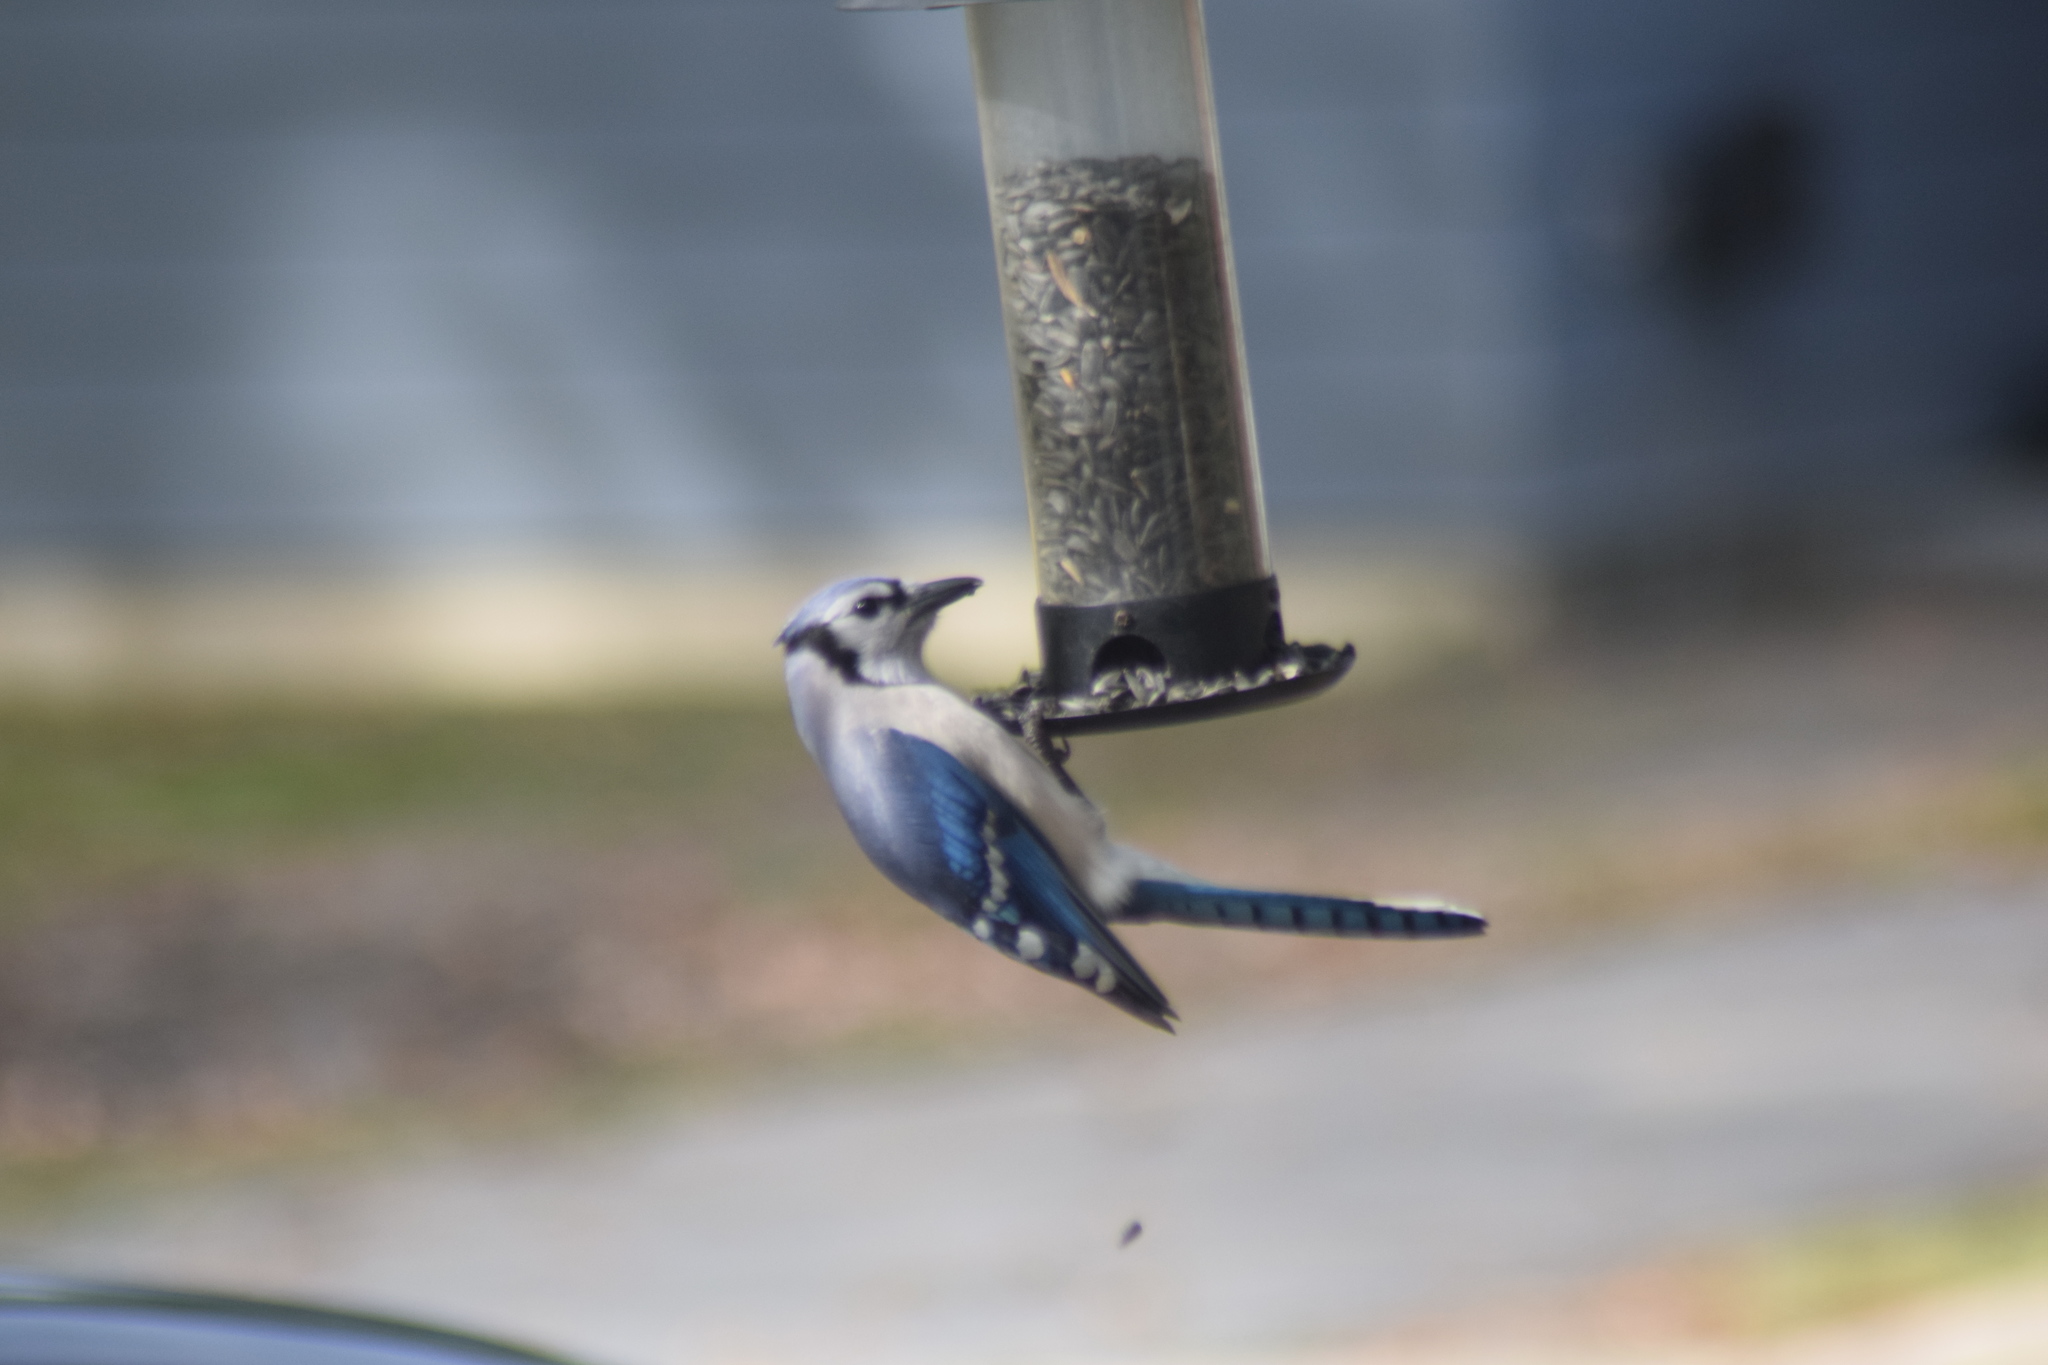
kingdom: Animalia
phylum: Chordata
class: Aves
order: Passeriformes
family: Corvidae
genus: Cyanocitta
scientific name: Cyanocitta cristata
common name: Blue jay
